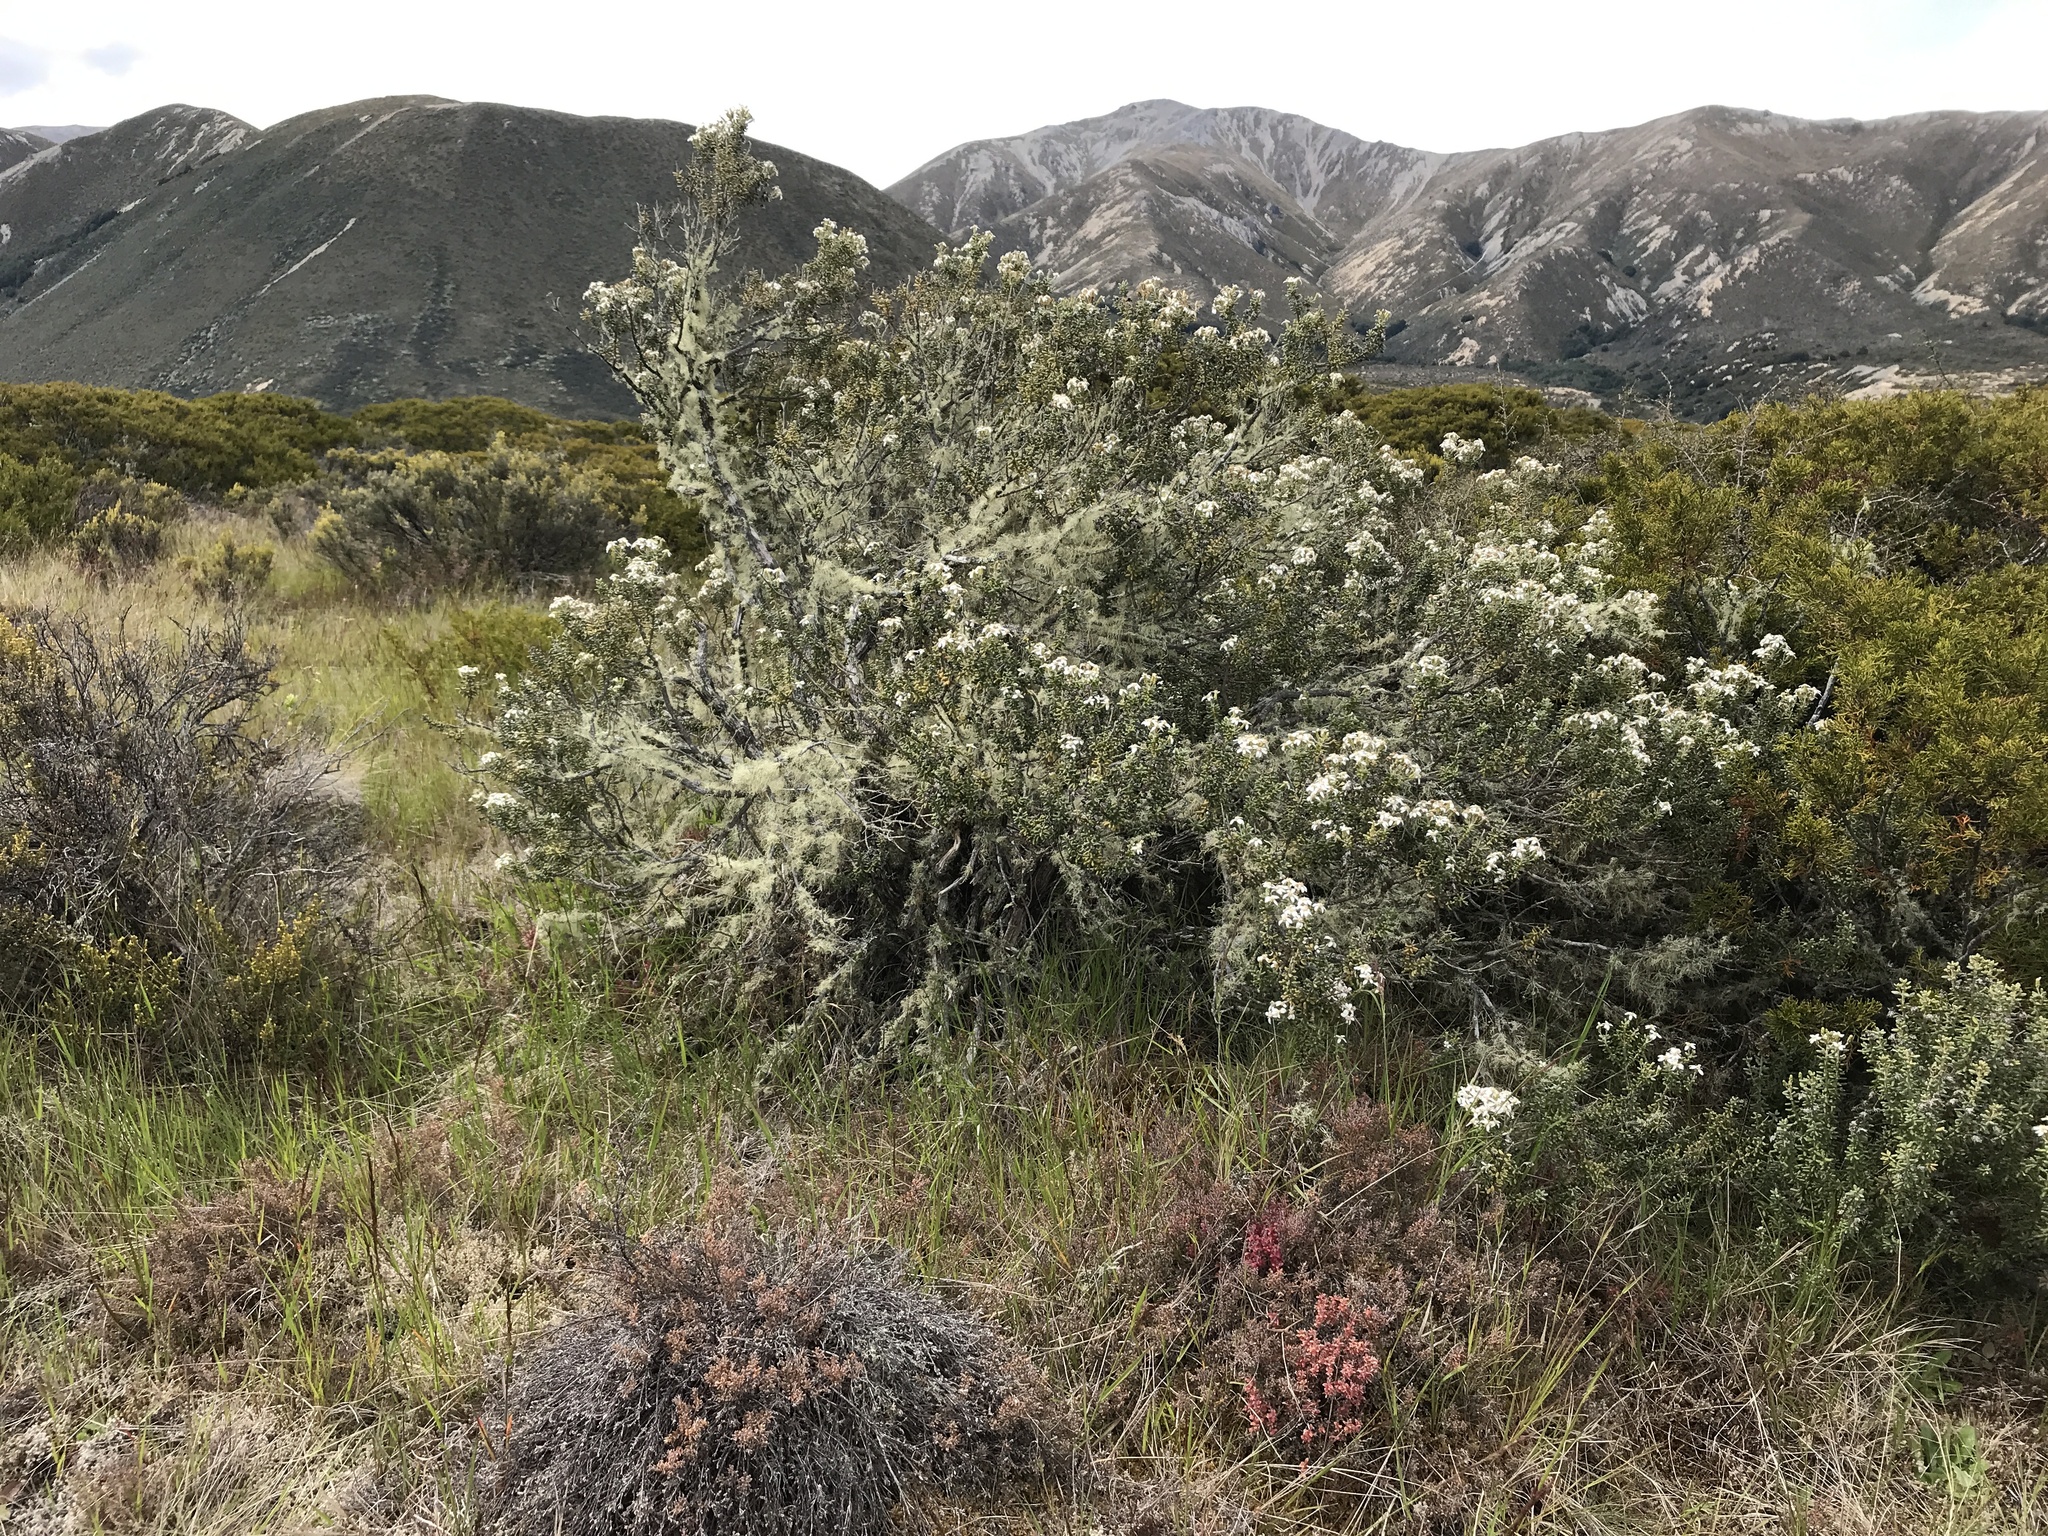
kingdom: Plantae
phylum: Tracheophyta
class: Magnoliopsida
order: Asterales
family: Asteraceae
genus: Olearia
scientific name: Olearia cymbifolia
